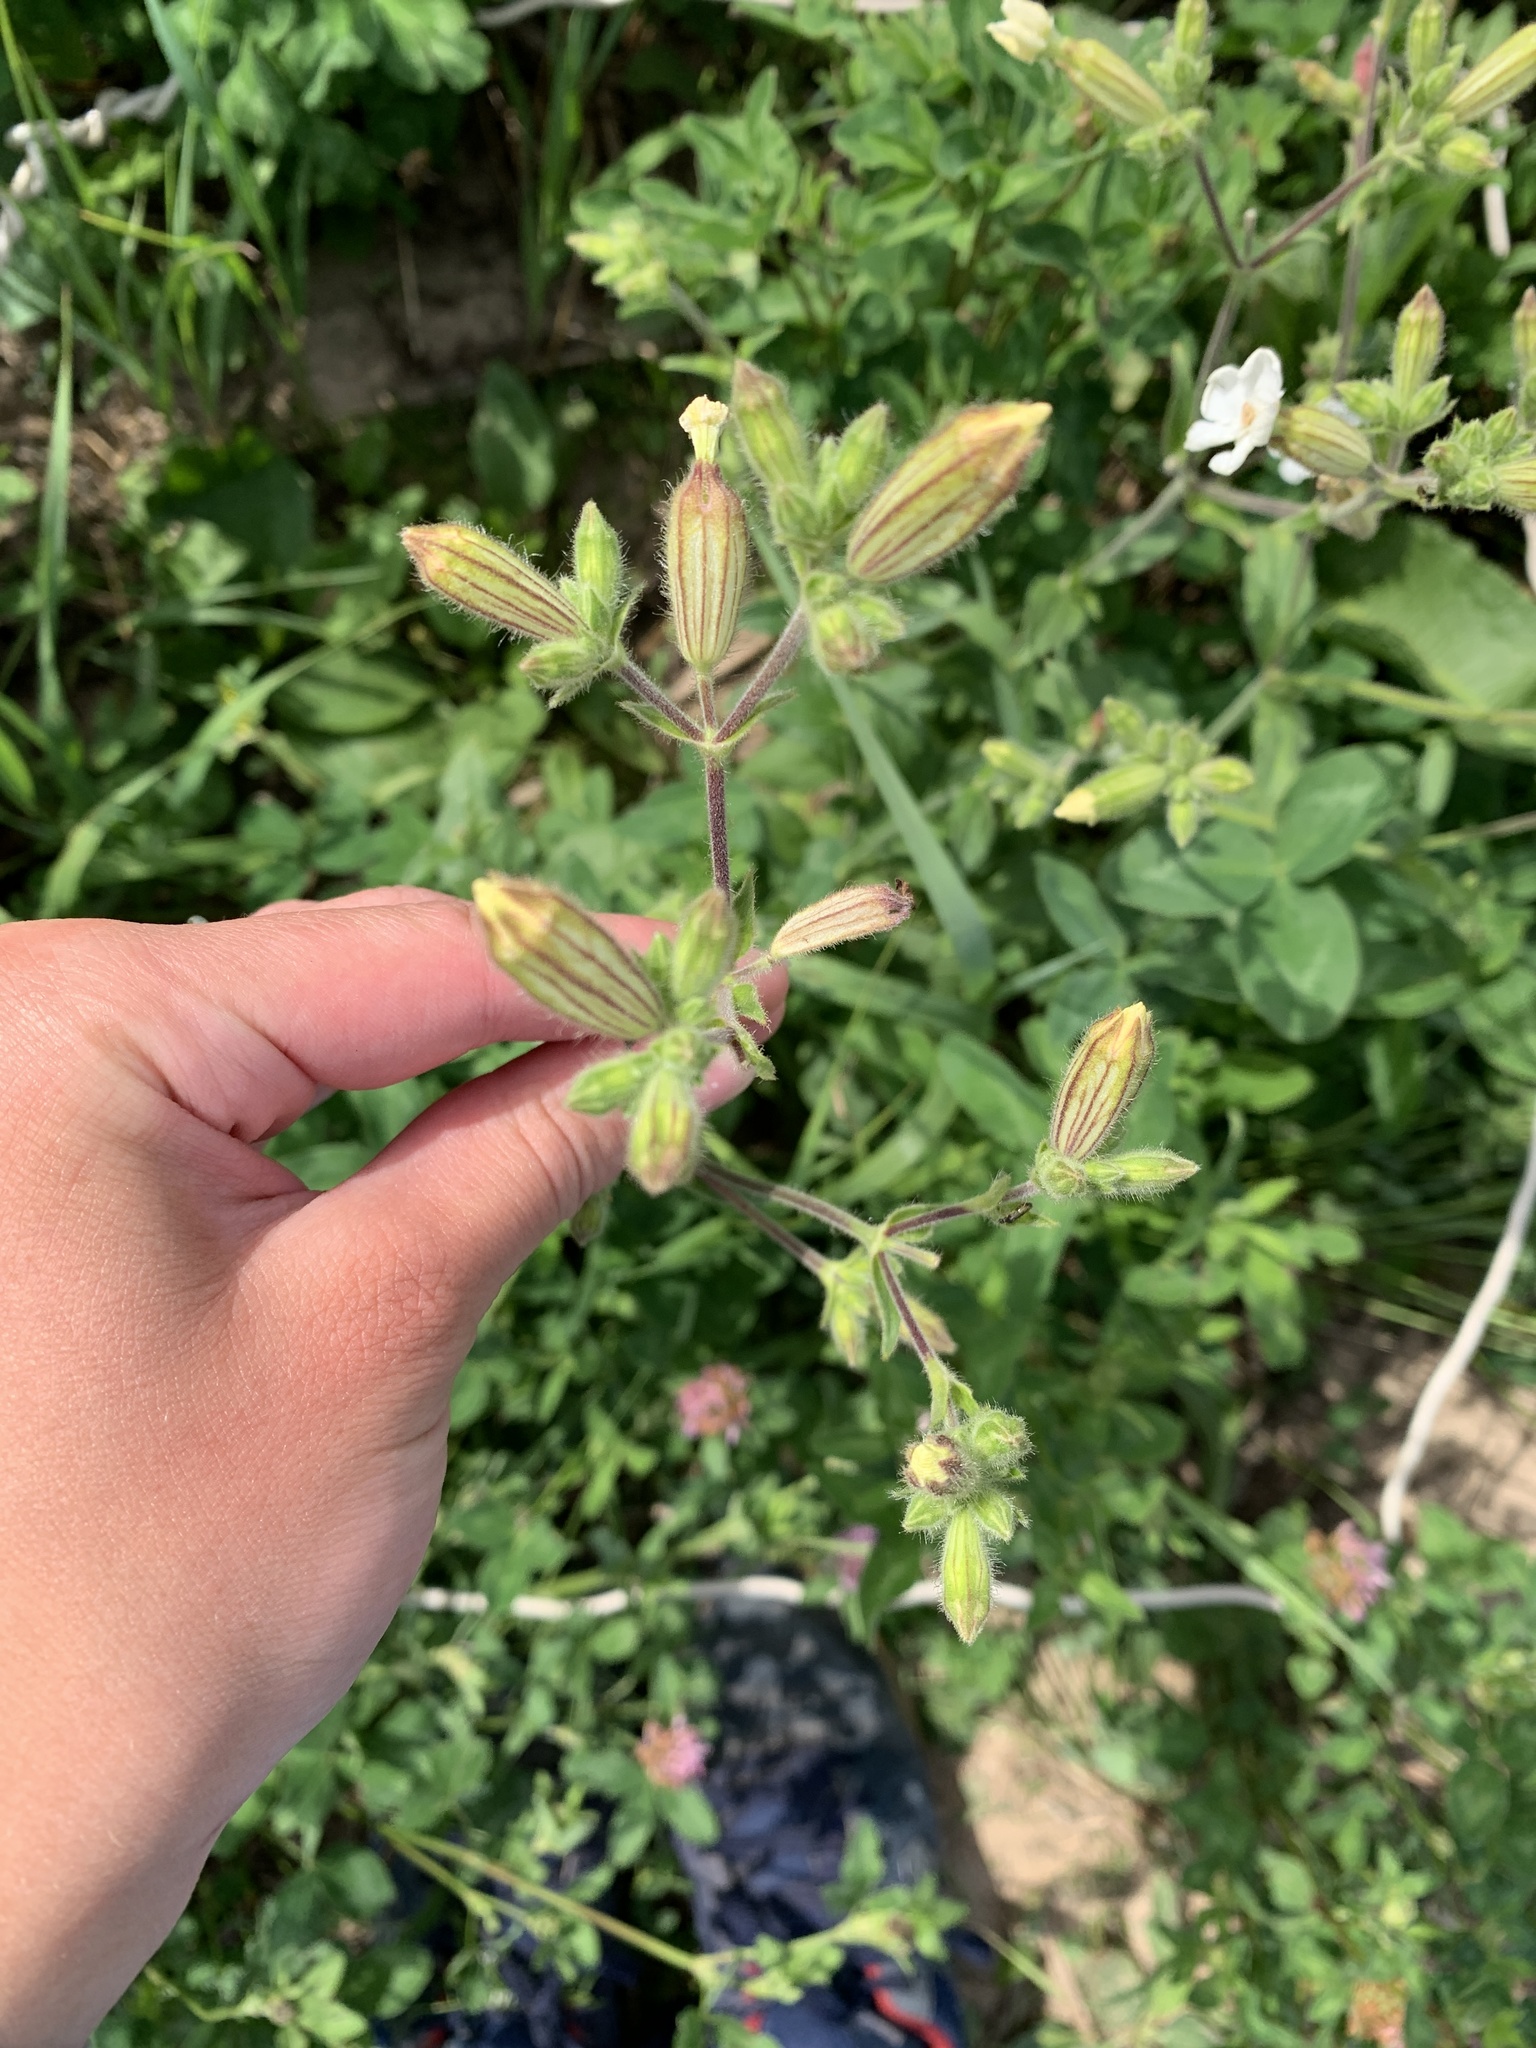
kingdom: Plantae
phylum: Tracheophyta
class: Magnoliopsida
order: Caryophyllales
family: Caryophyllaceae
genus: Silene
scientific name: Silene latifolia
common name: White campion
